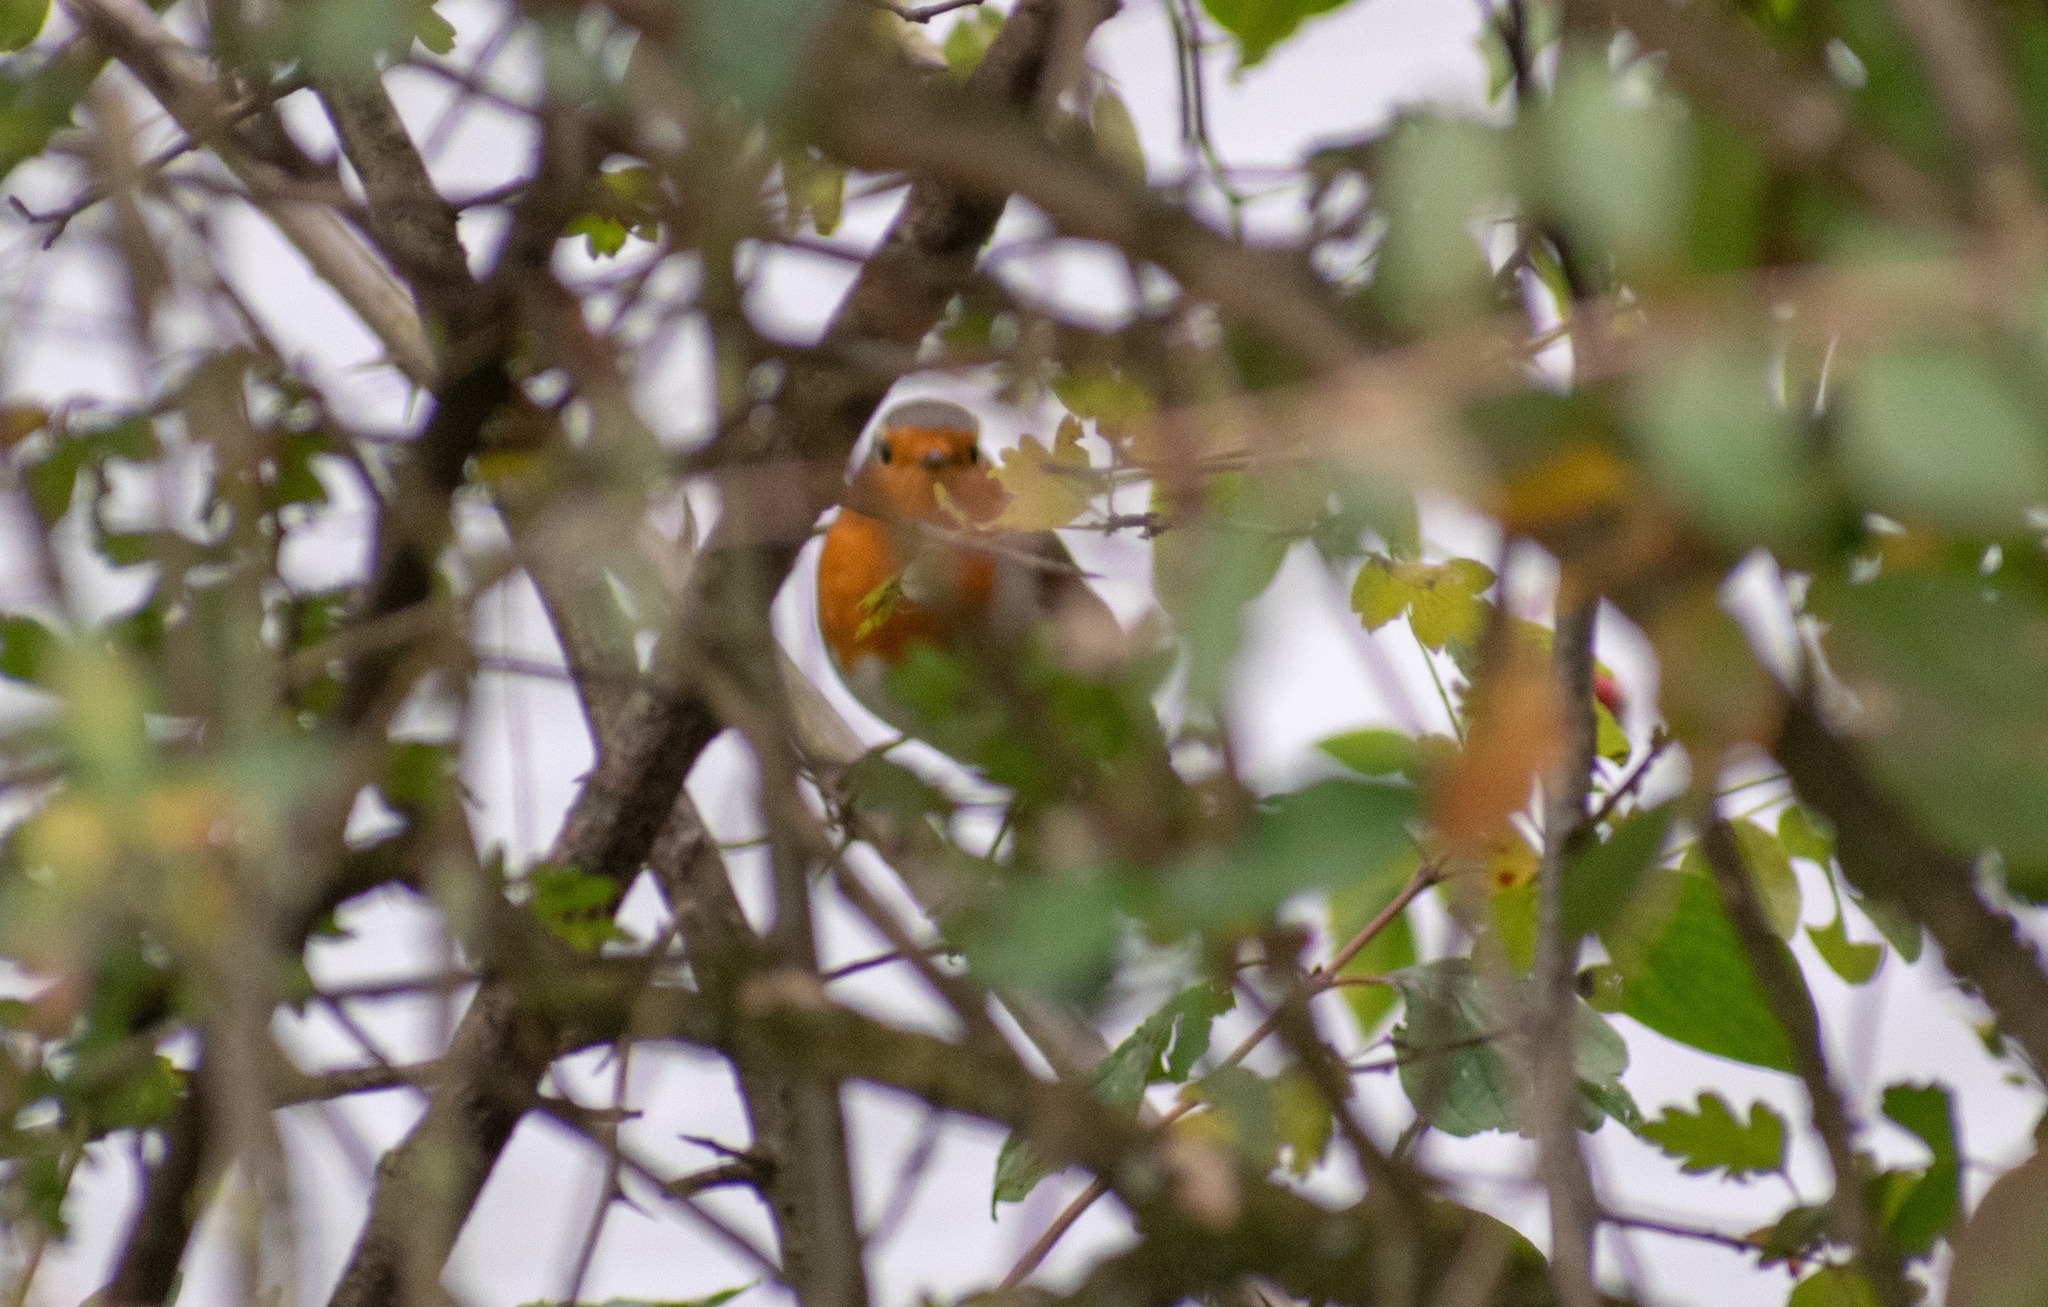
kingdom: Animalia
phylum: Chordata
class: Aves
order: Passeriformes
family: Muscicapidae
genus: Erithacus
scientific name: Erithacus rubecula
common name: European robin
